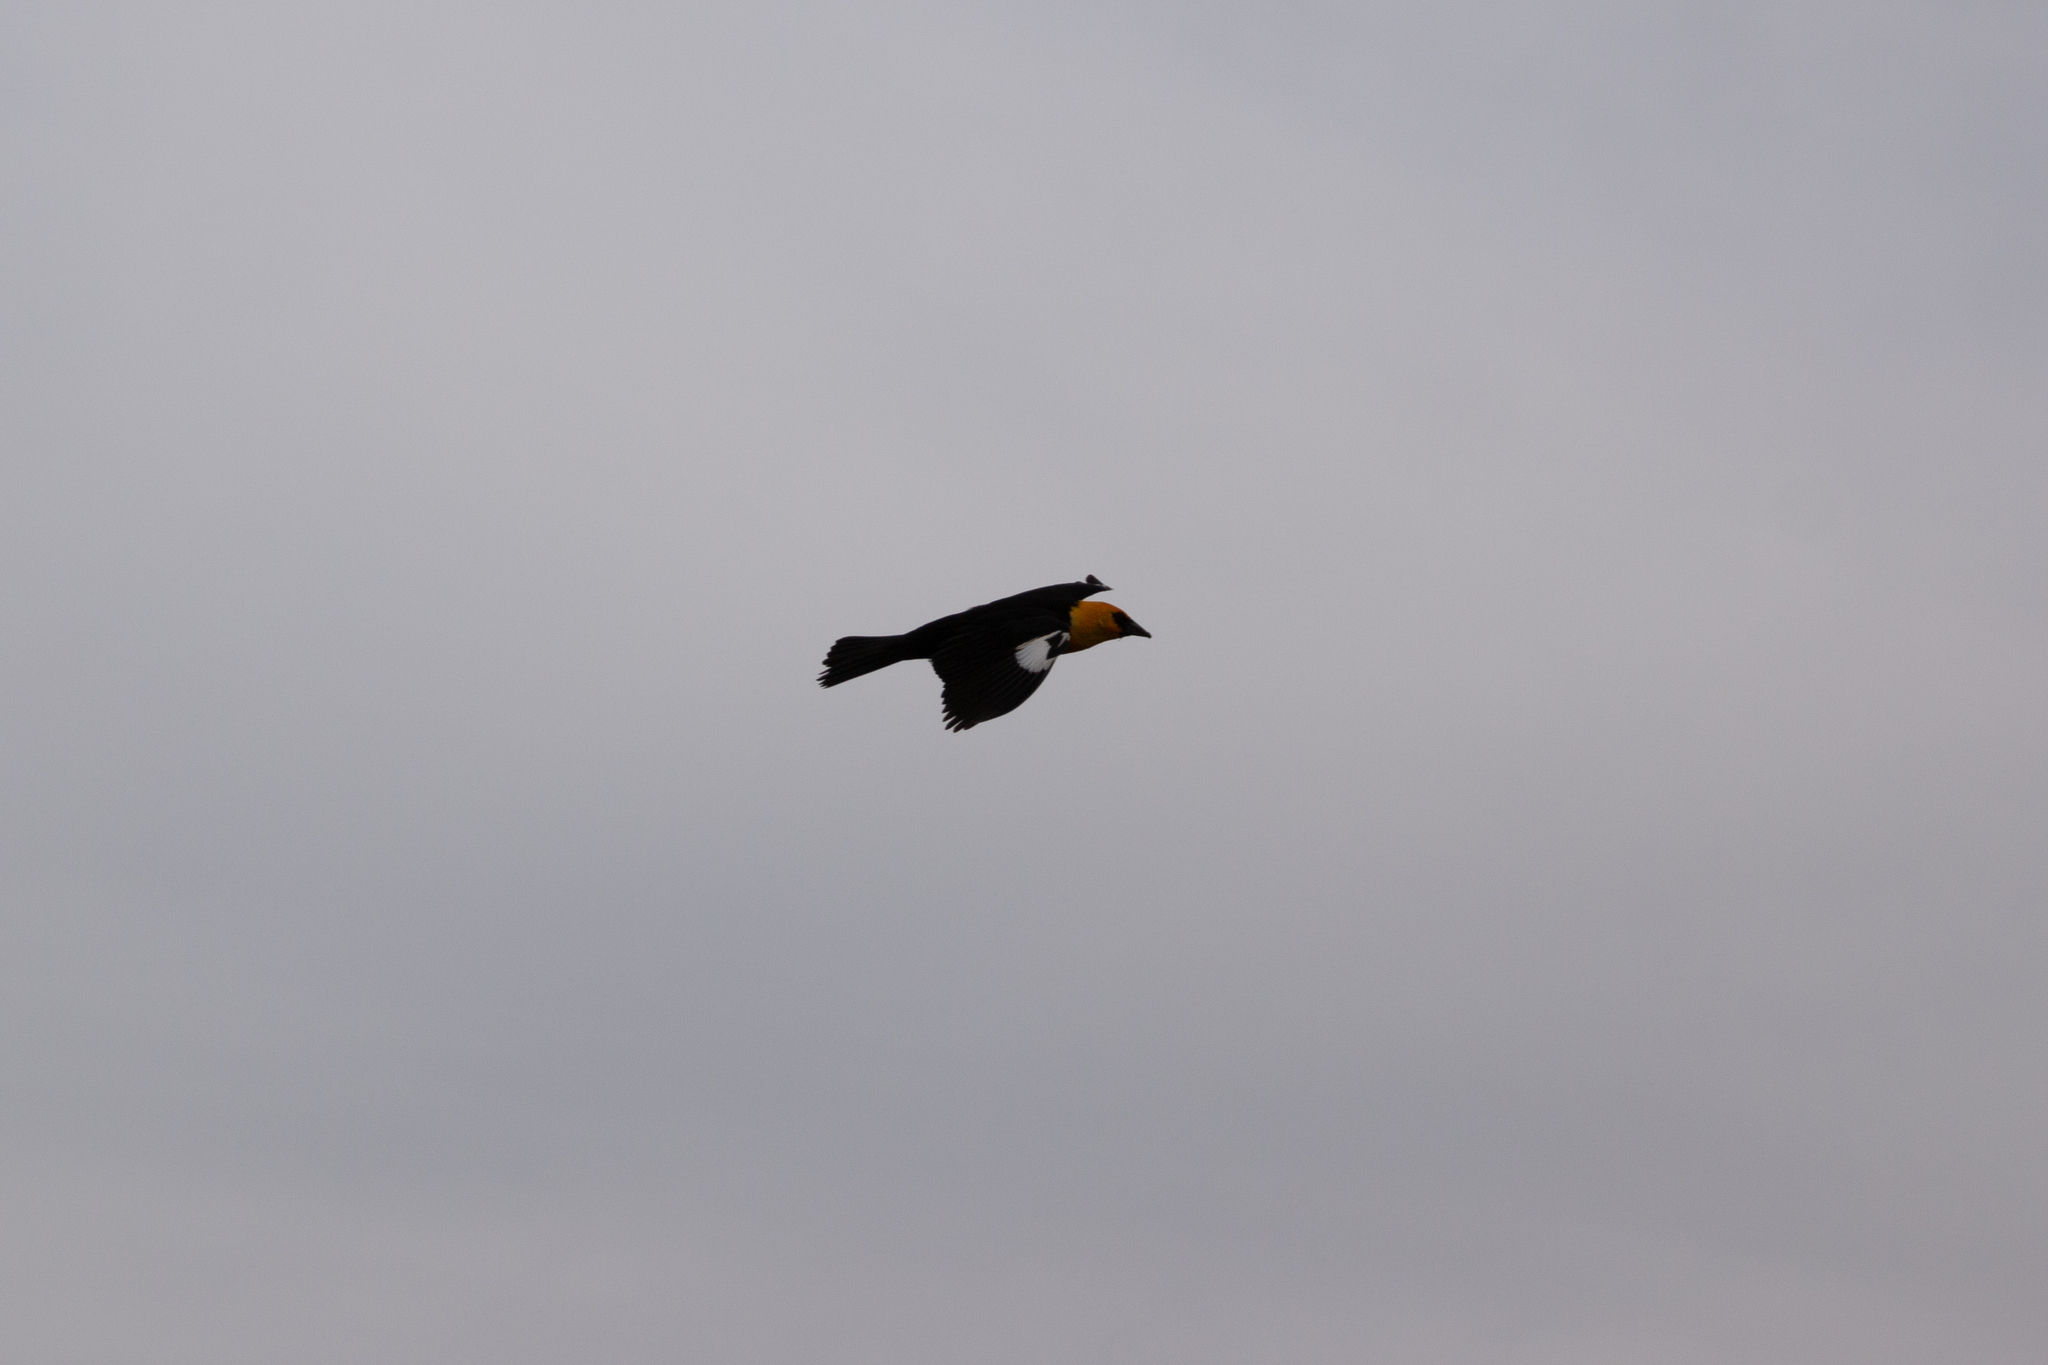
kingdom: Animalia
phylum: Chordata
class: Aves
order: Passeriformes
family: Icteridae
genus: Xanthocephalus
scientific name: Xanthocephalus xanthocephalus
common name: Yellow-headed blackbird
